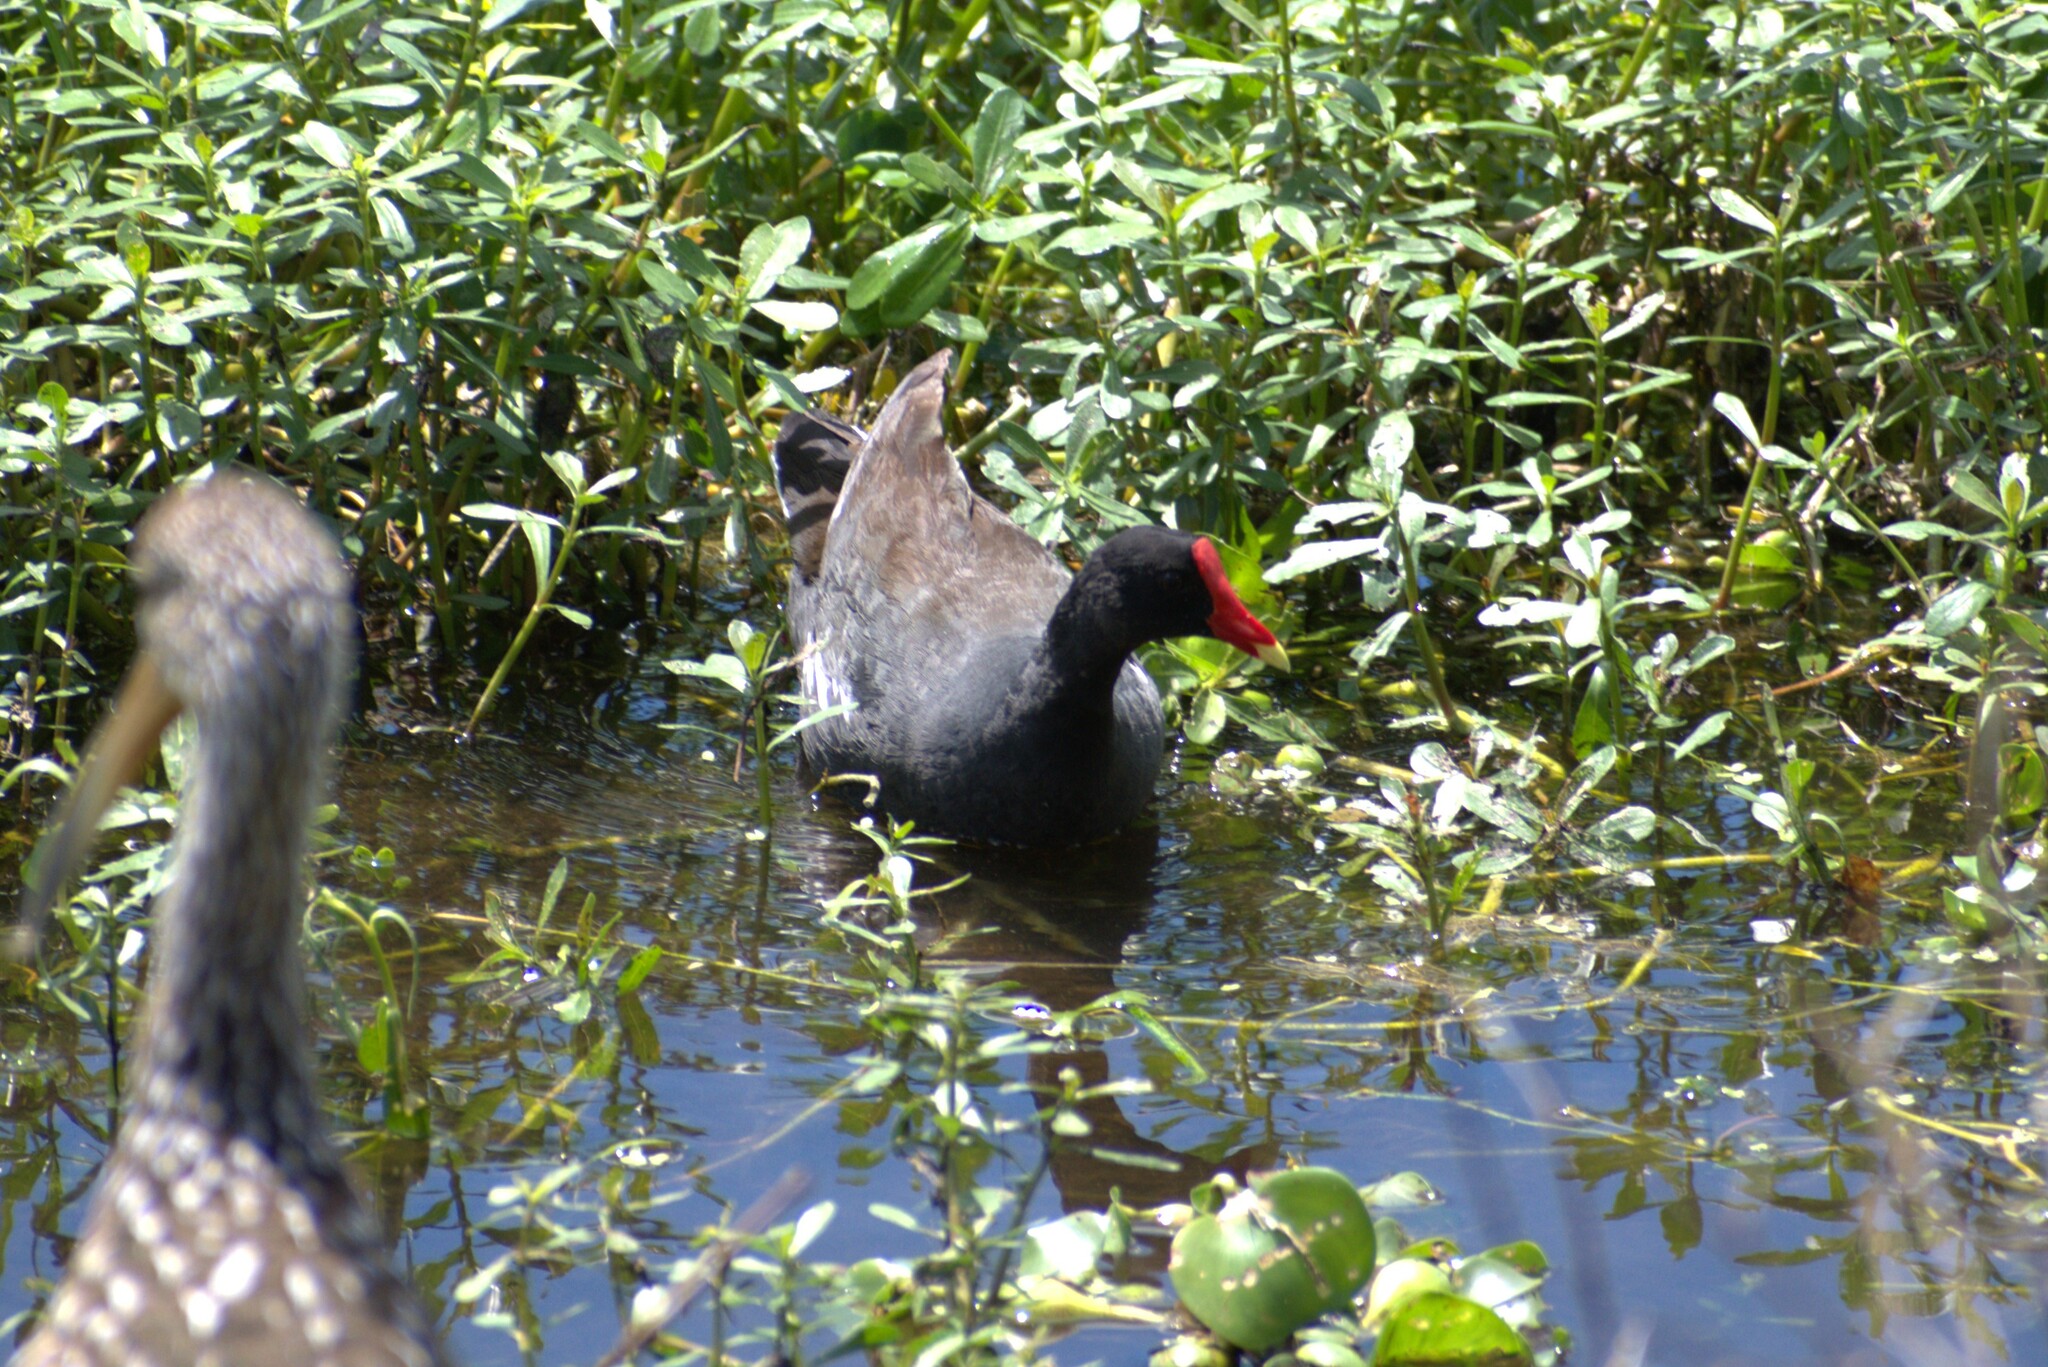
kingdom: Animalia
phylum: Chordata
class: Aves
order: Gruiformes
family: Rallidae
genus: Gallinula
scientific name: Gallinula chloropus
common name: Common moorhen
